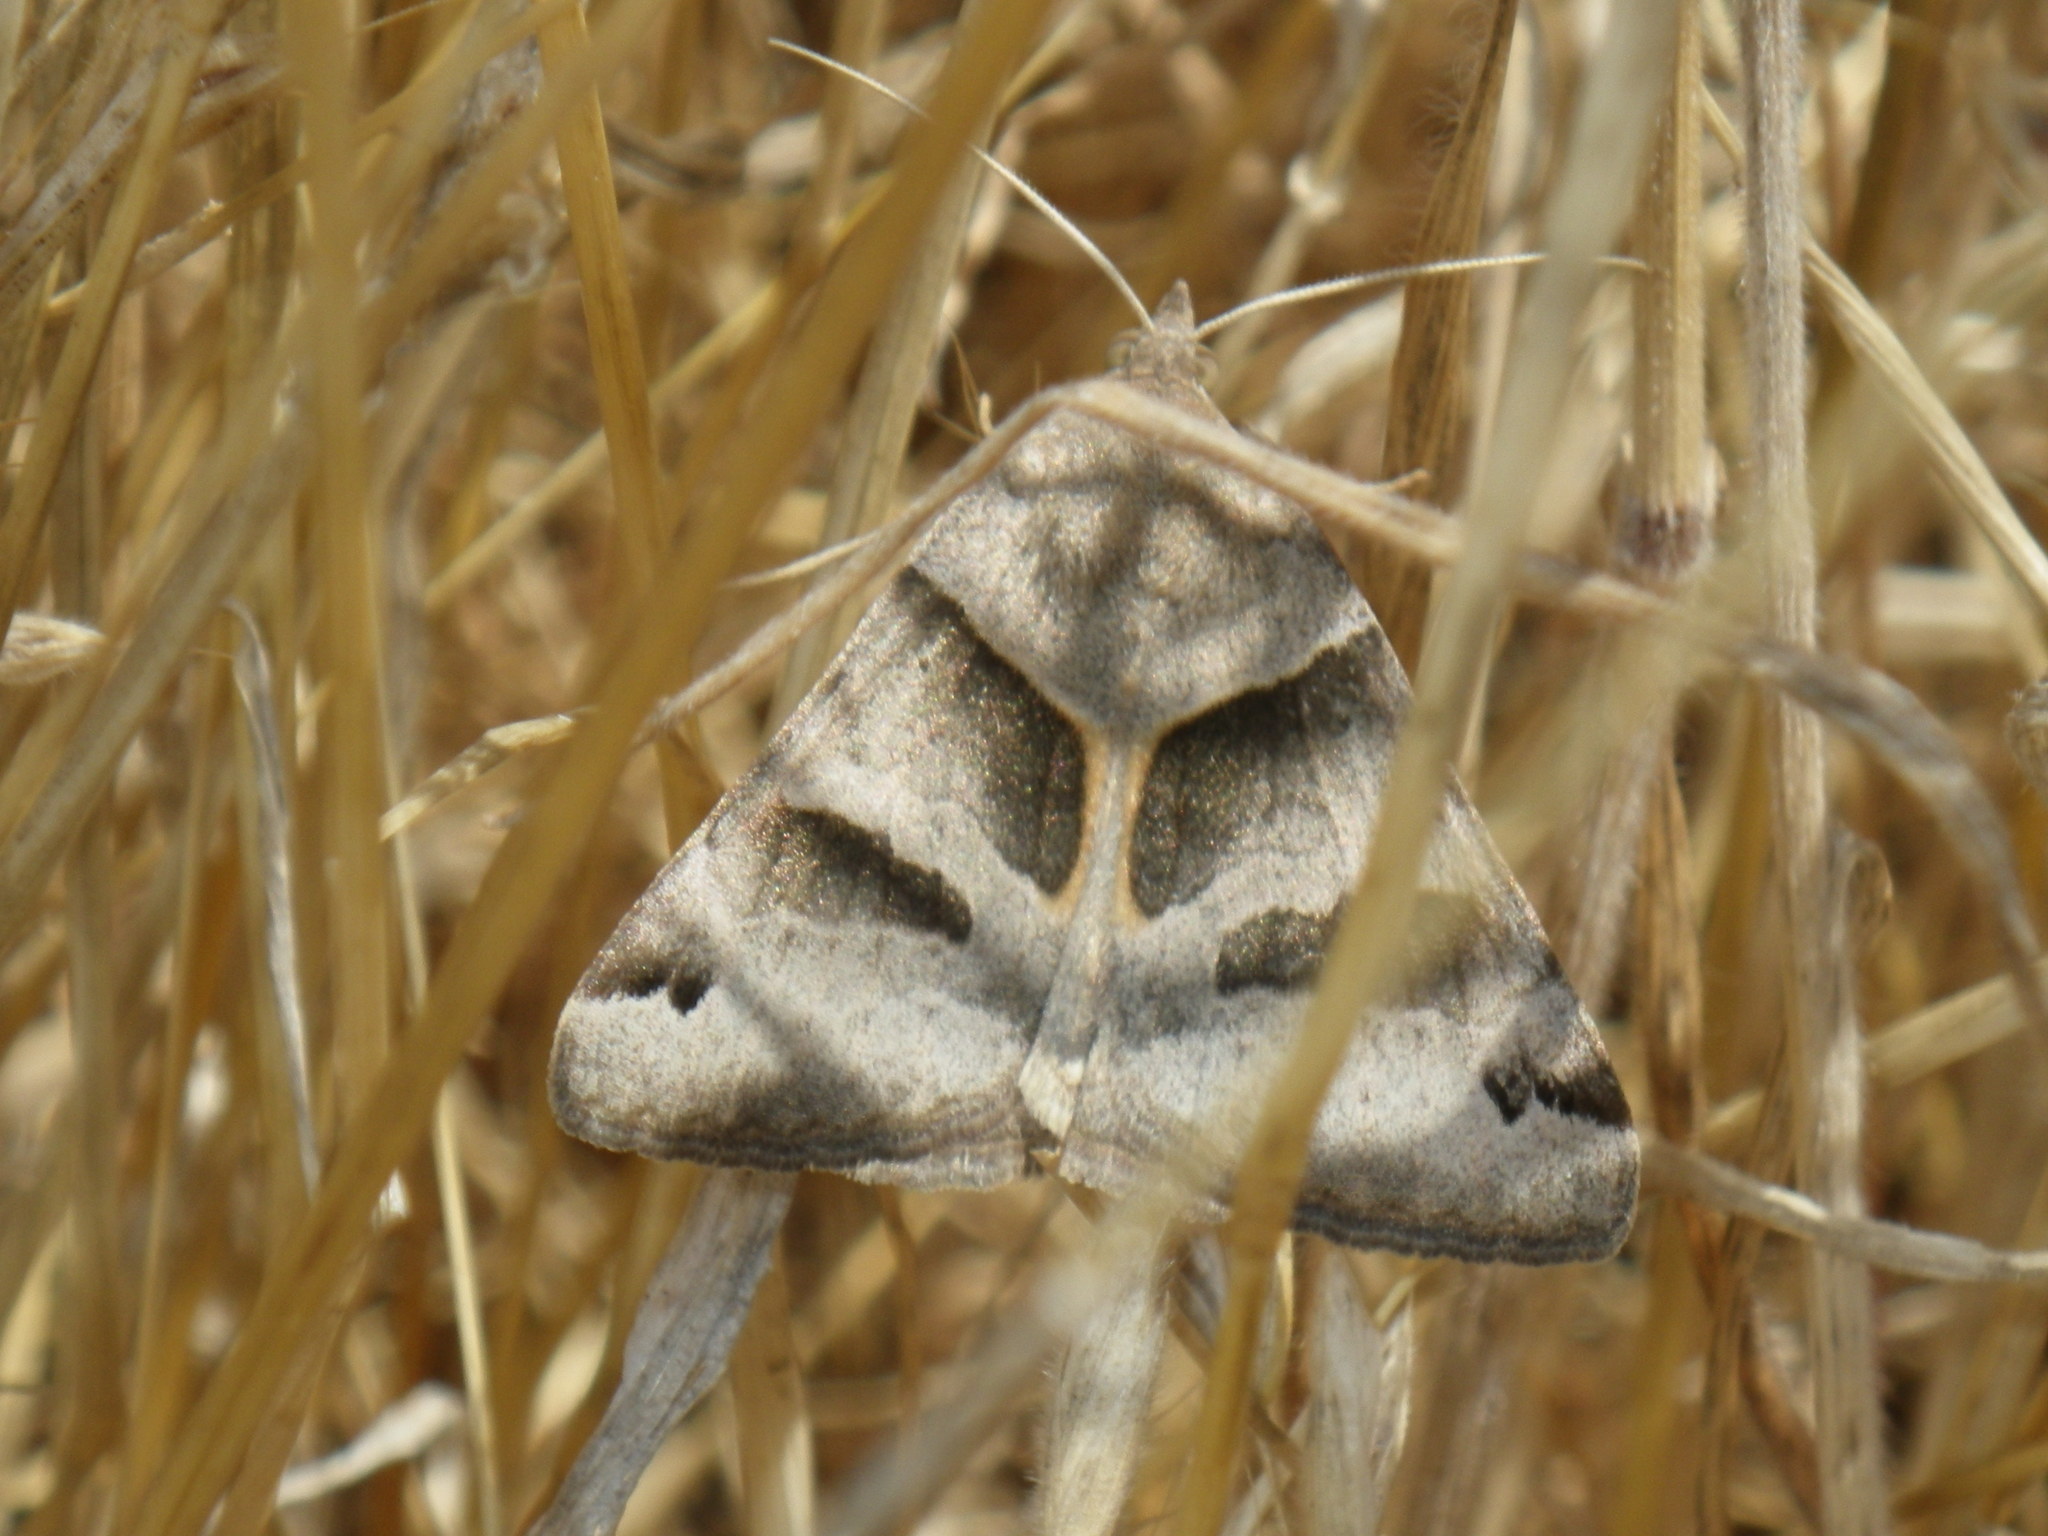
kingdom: Animalia
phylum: Arthropoda
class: Insecta
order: Lepidoptera
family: Erebidae
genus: Caenurgina
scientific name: Caenurgina crassiuscula
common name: Double-barred
